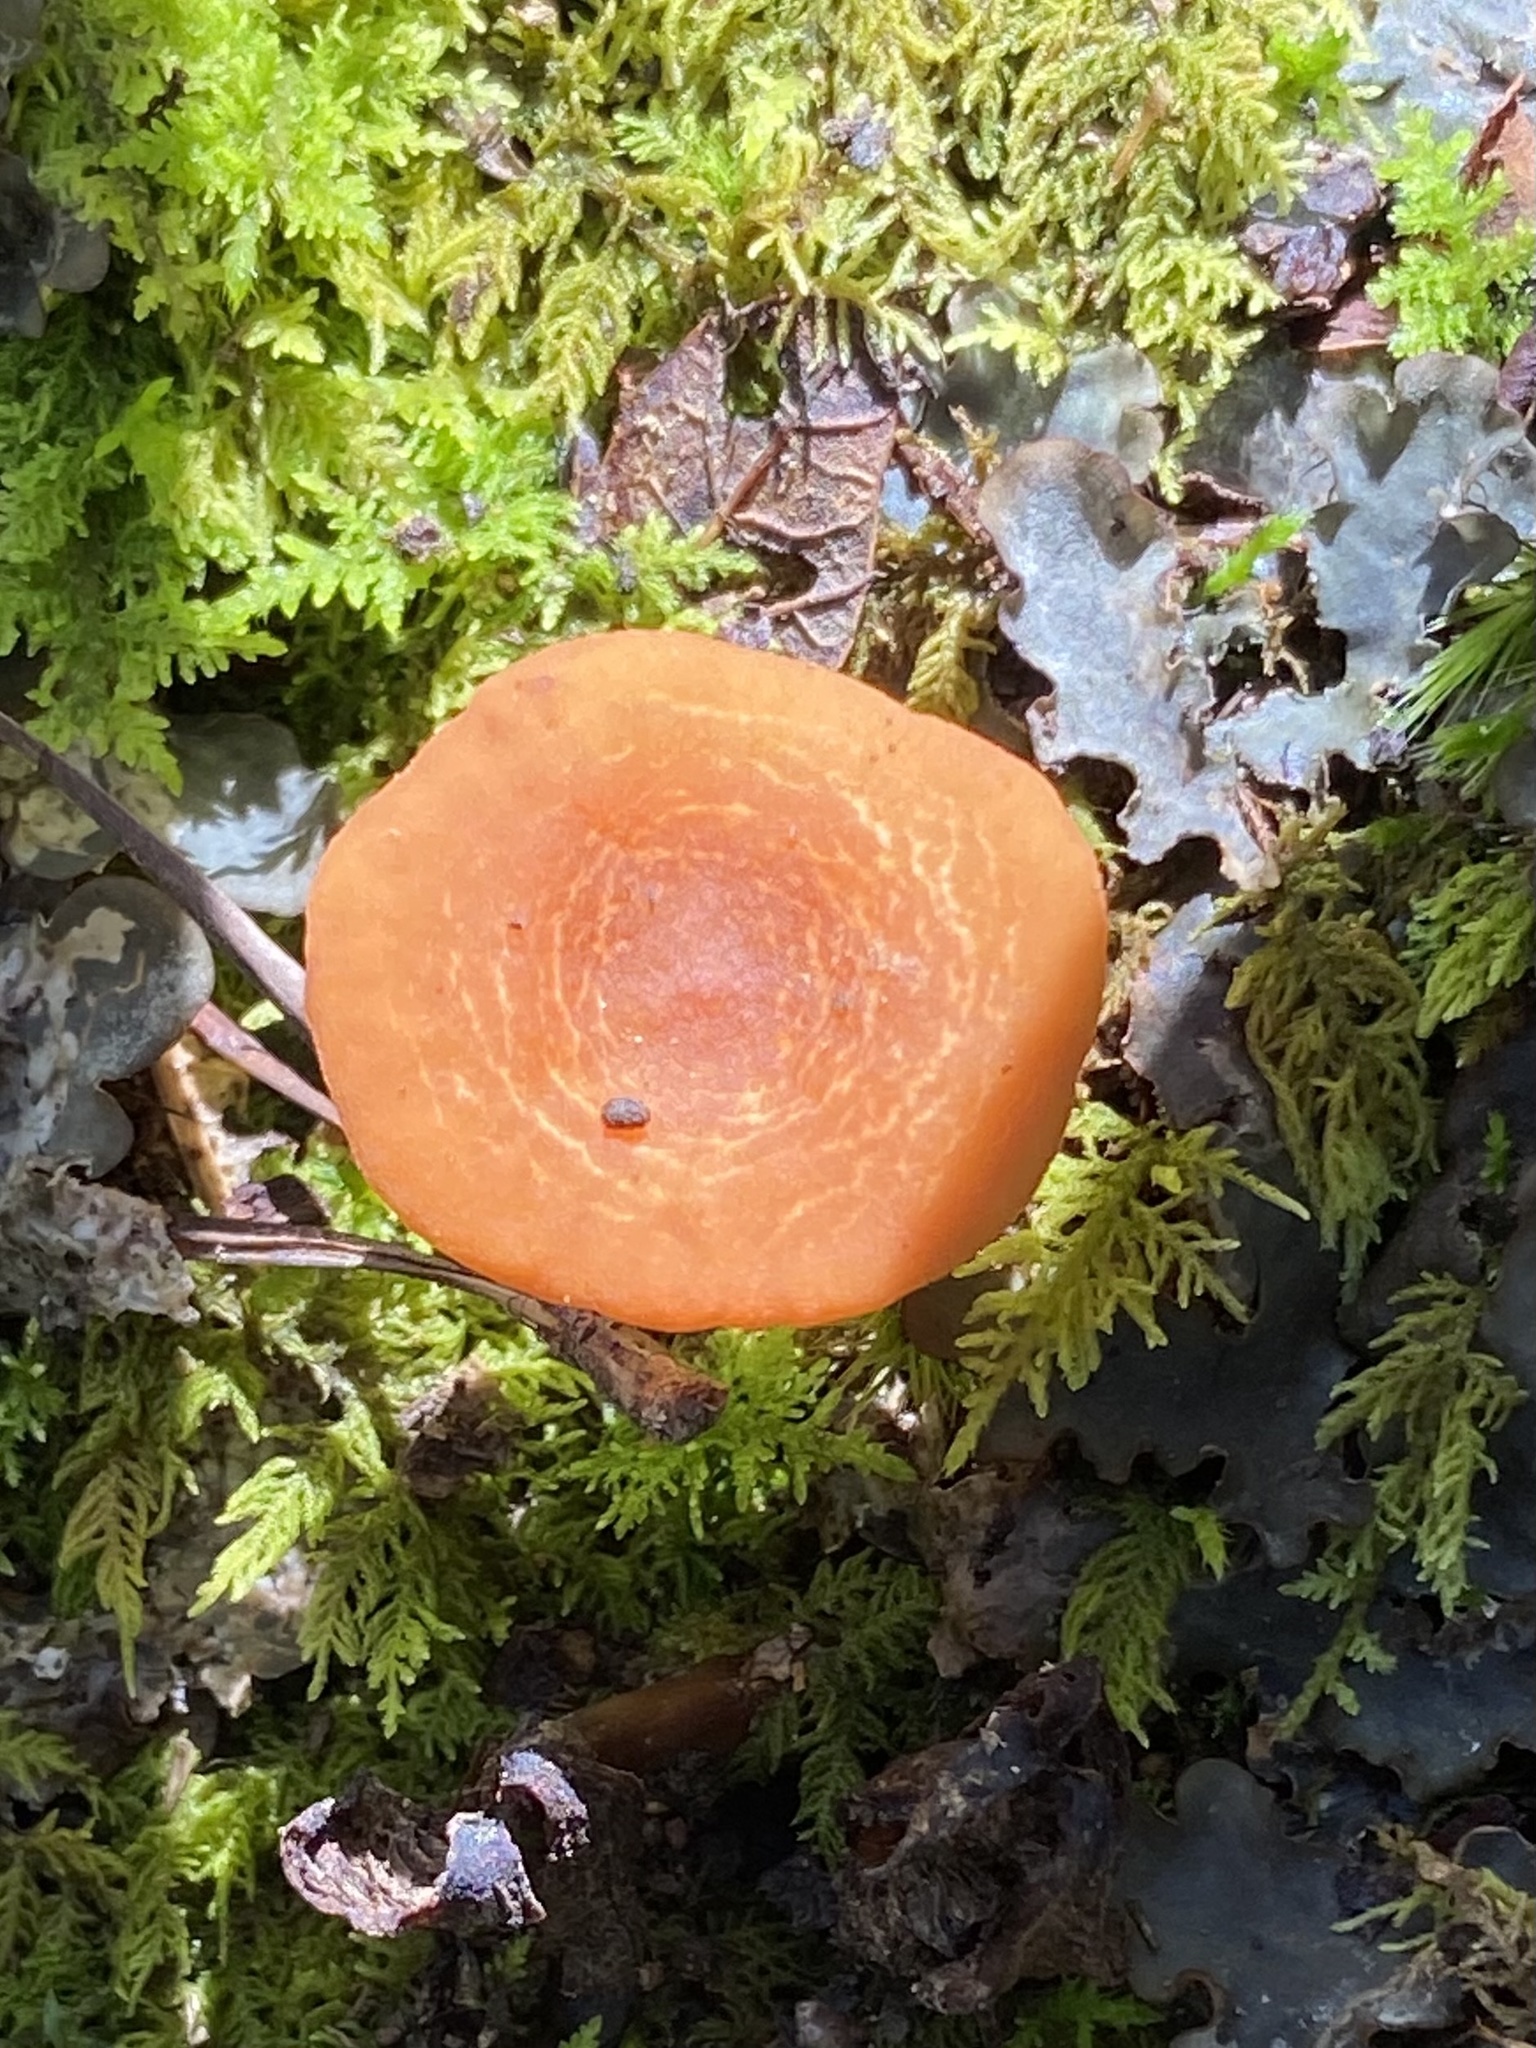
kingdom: Fungi
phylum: Basidiomycota
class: Agaricomycetes
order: Russulales
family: Russulaceae
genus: Lactarius
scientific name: Lactarius
